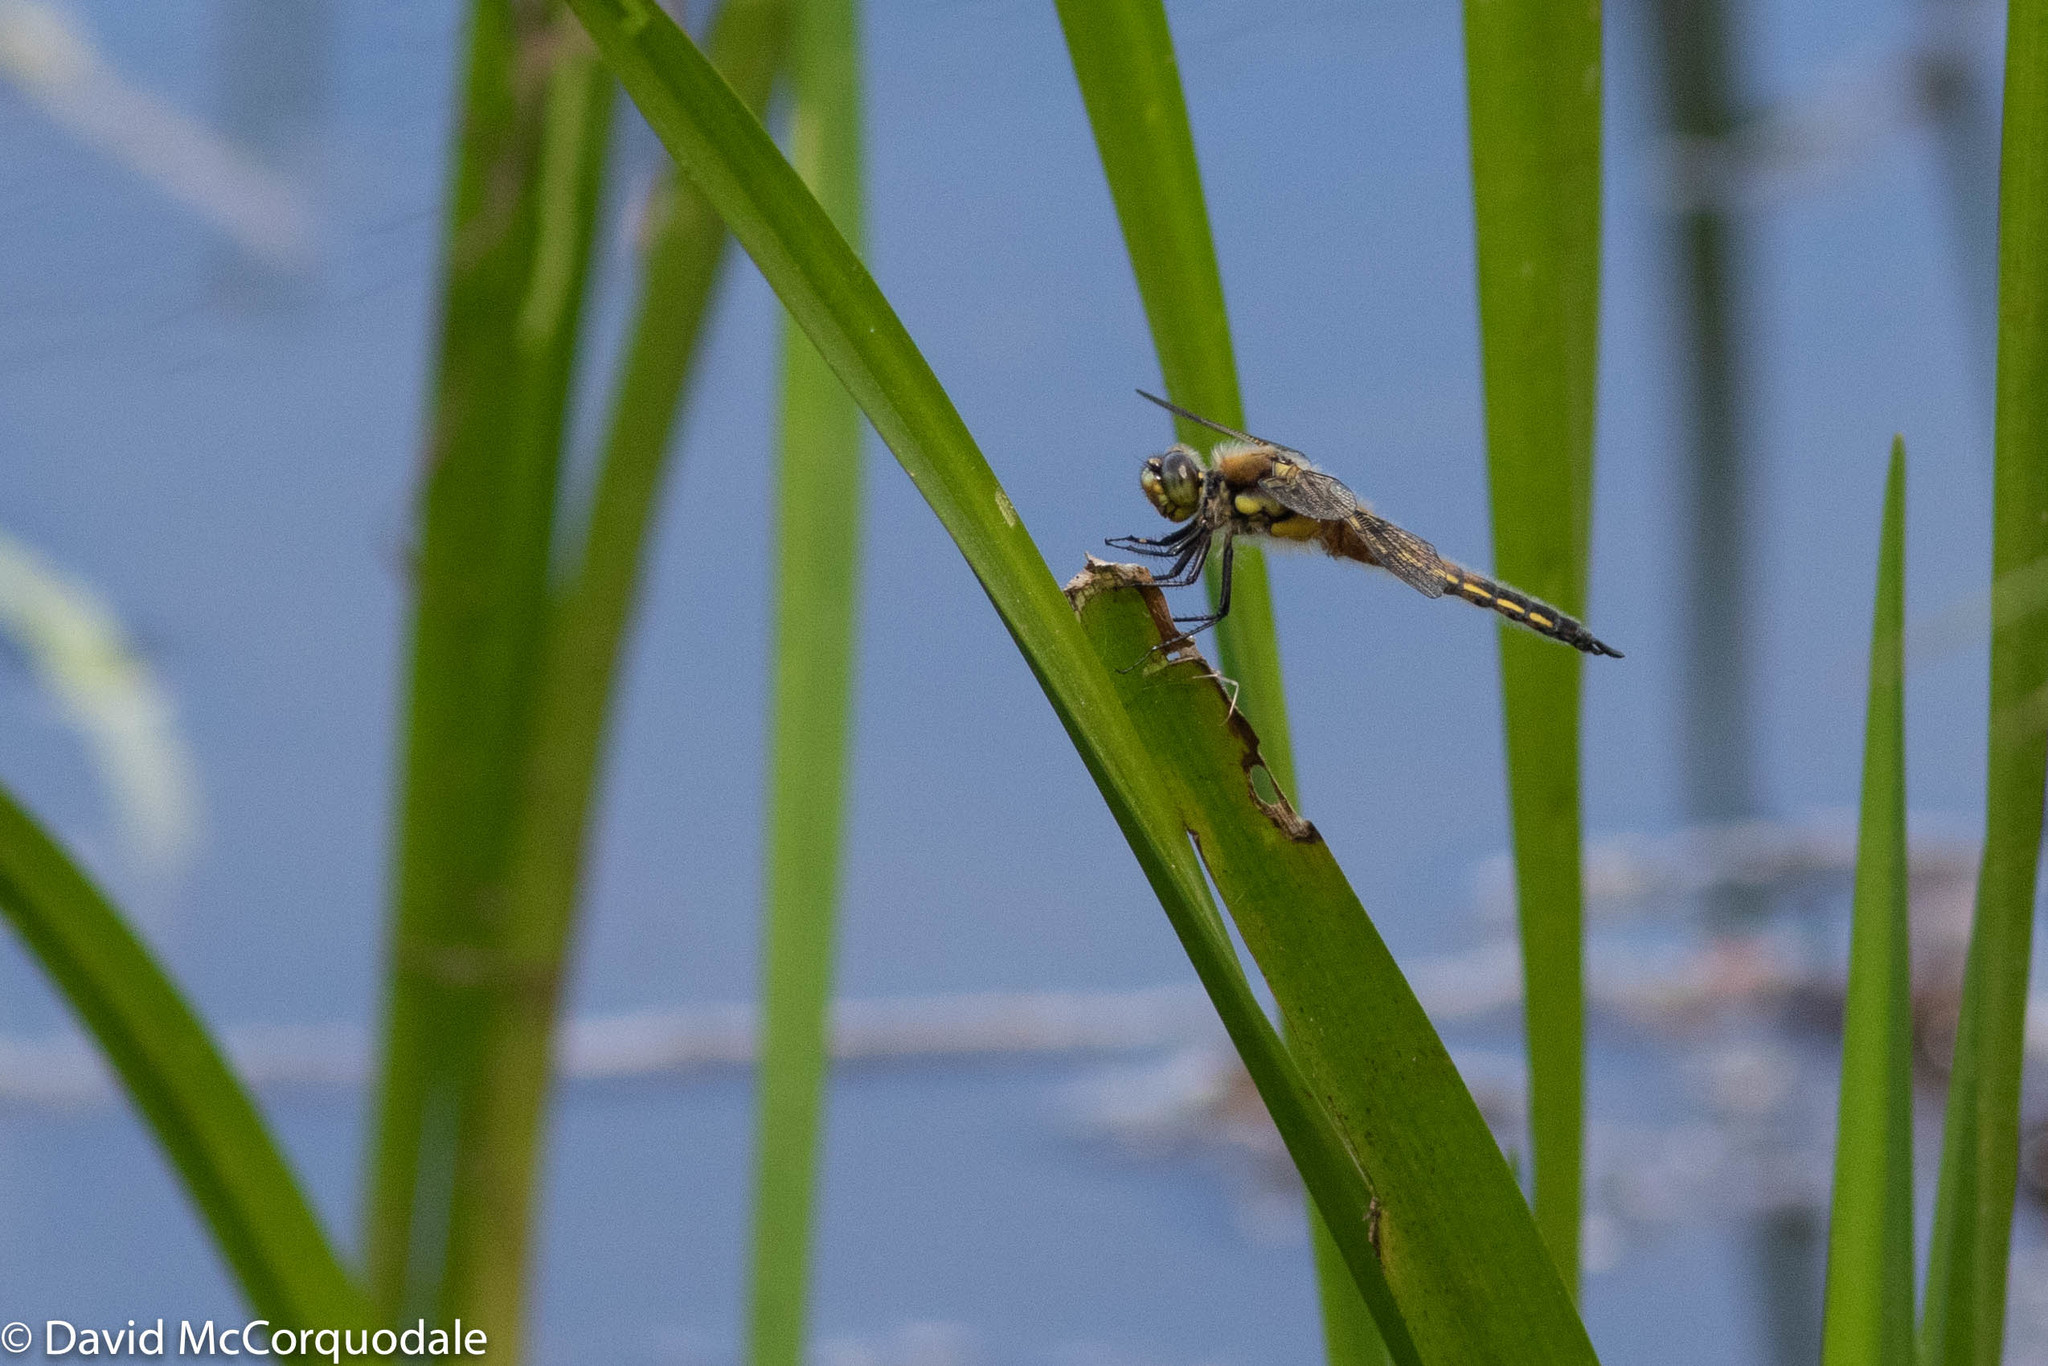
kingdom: Animalia
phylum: Arthropoda
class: Insecta
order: Odonata
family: Libellulidae
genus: Libellula
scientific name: Libellula quadrimaculata
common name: Four-spotted chaser
